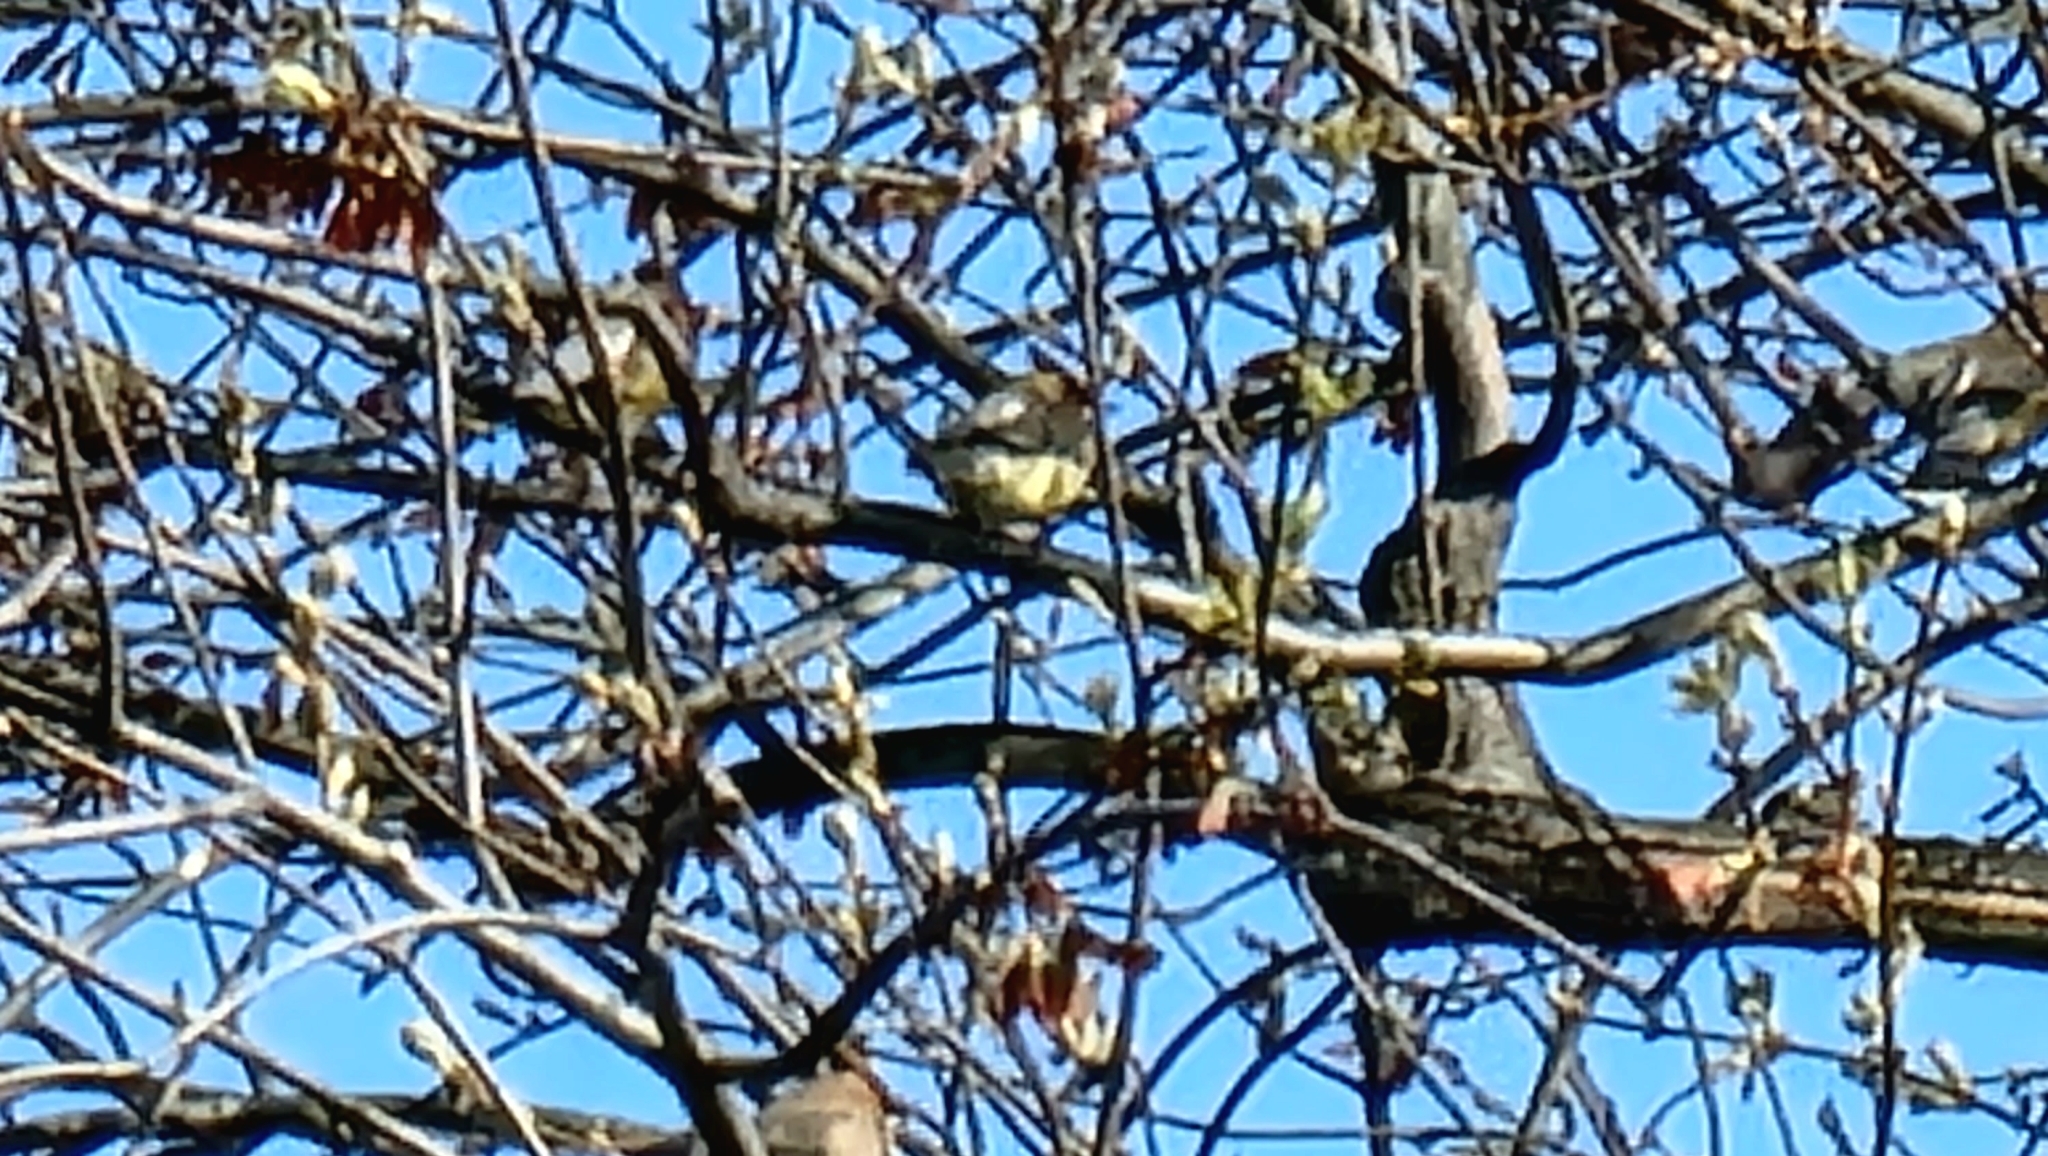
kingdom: Animalia
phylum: Chordata
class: Aves
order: Passeriformes
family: Bombycillidae
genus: Bombycilla
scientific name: Bombycilla cedrorum
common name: Cedar waxwing
